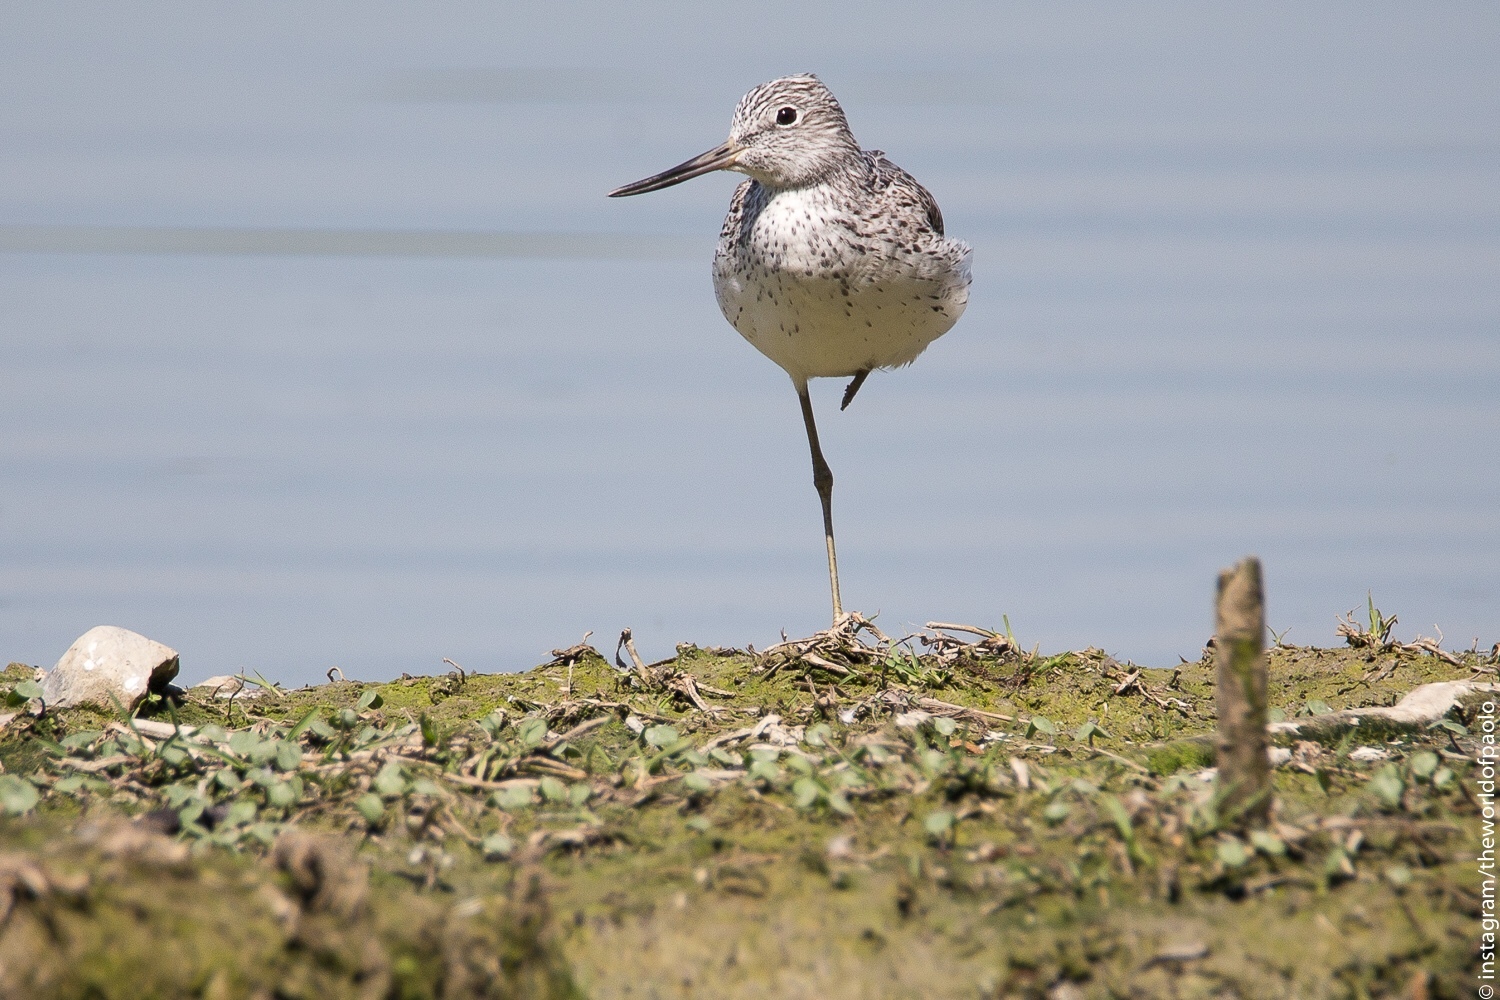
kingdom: Animalia
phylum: Chordata
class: Aves
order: Charadriiformes
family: Scolopacidae
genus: Tringa
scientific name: Tringa nebularia
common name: Common greenshank
